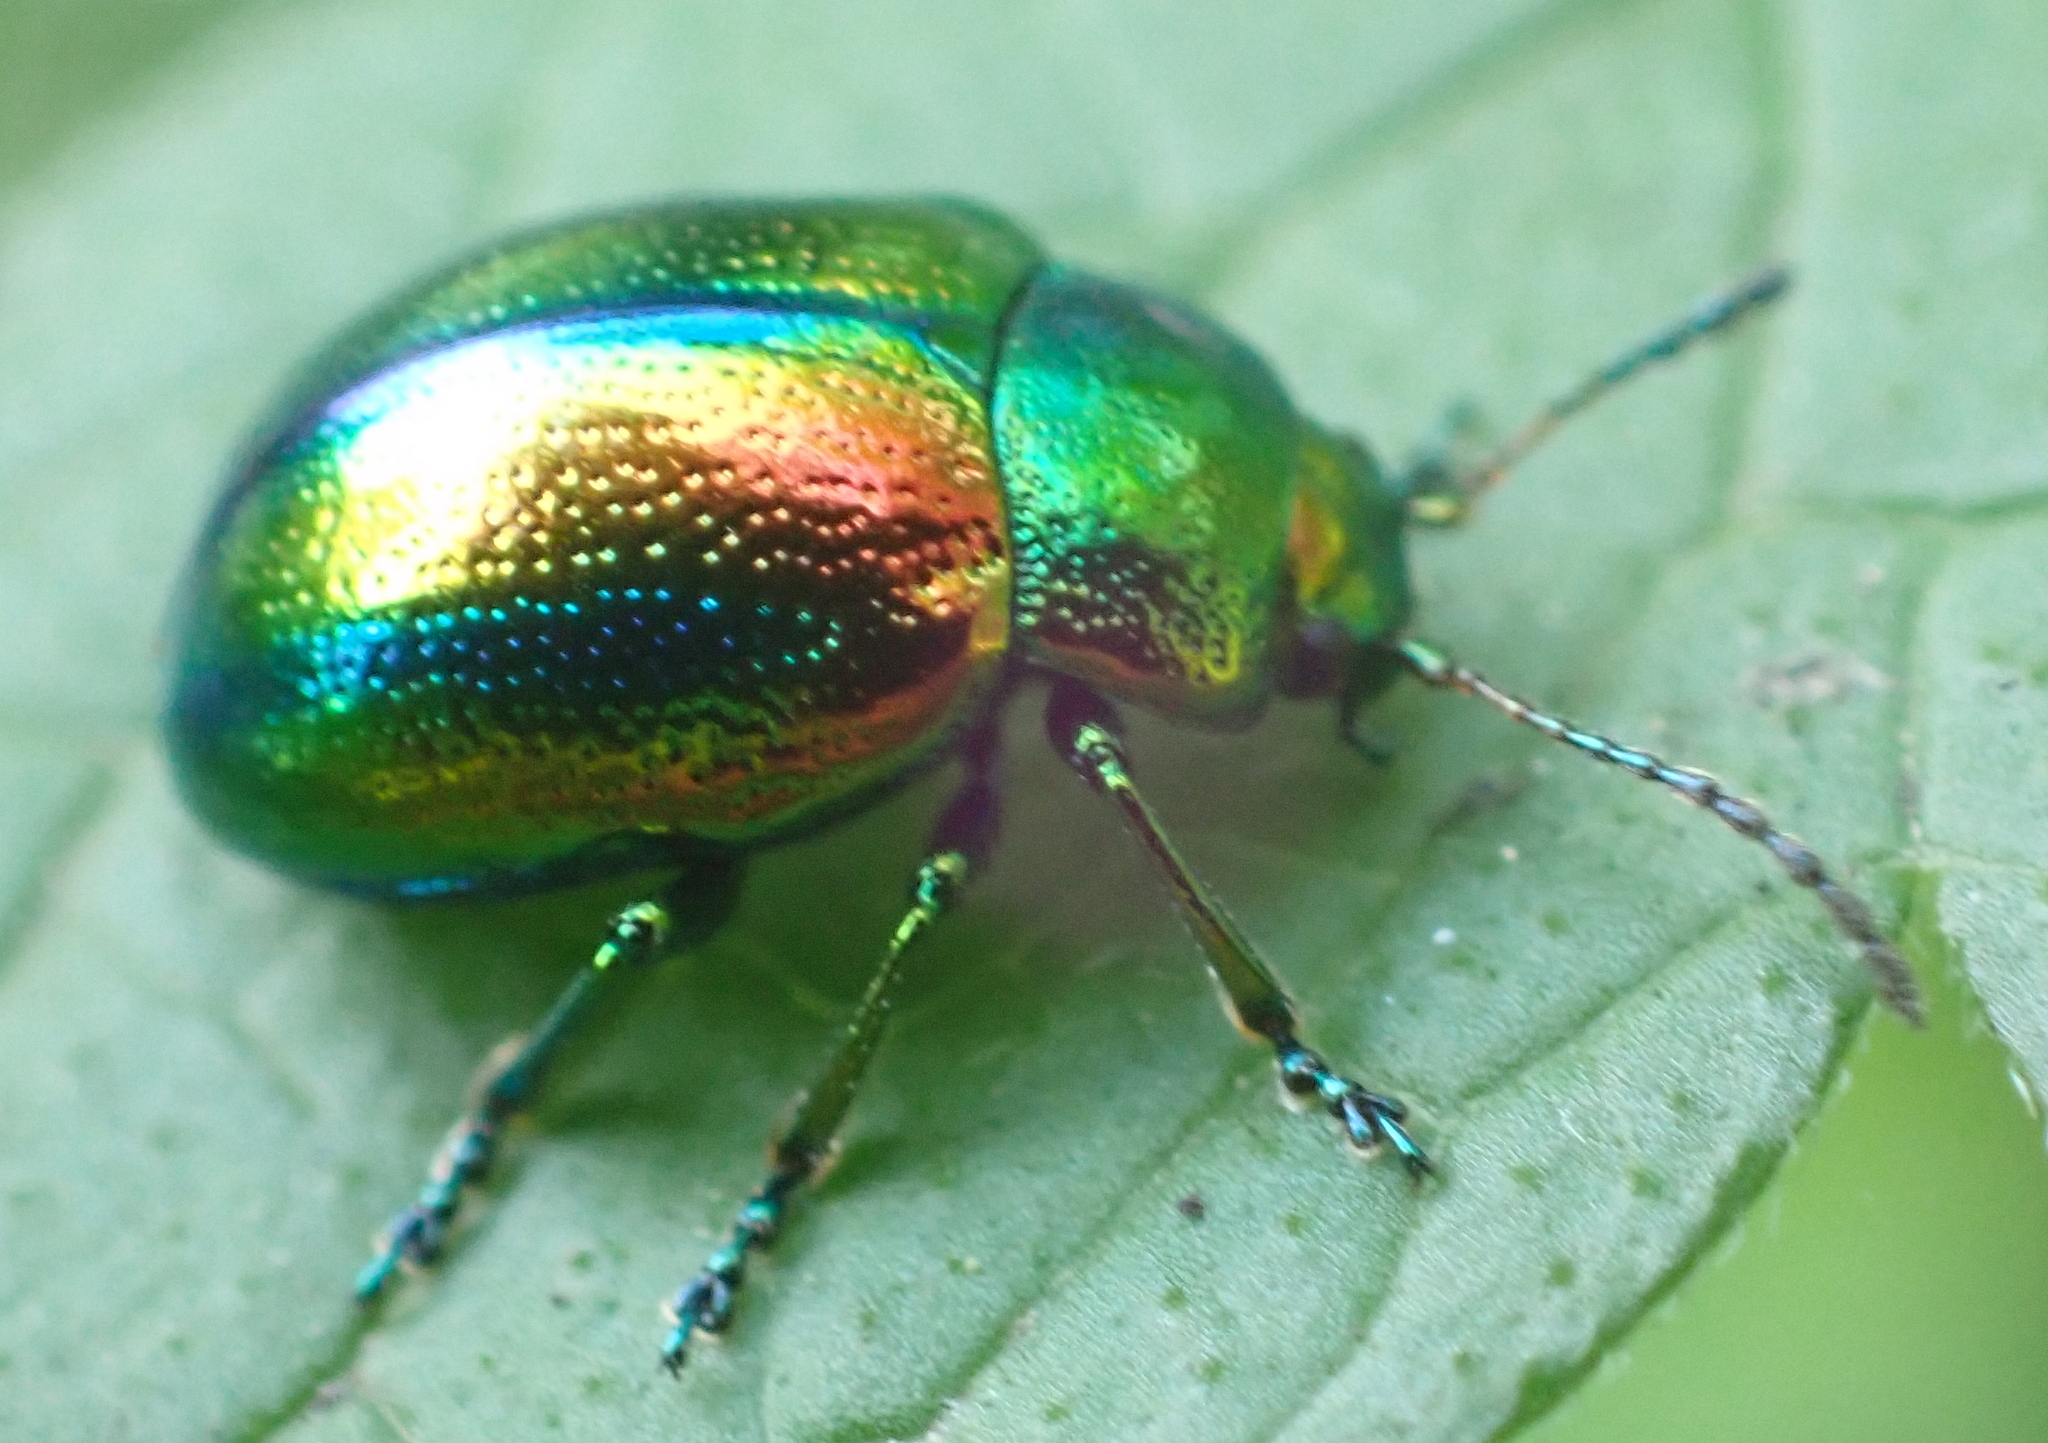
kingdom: Animalia
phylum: Arthropoda
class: Insecta
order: Coleoptera
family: Chrysomelidae
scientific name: Chrysomelidae
